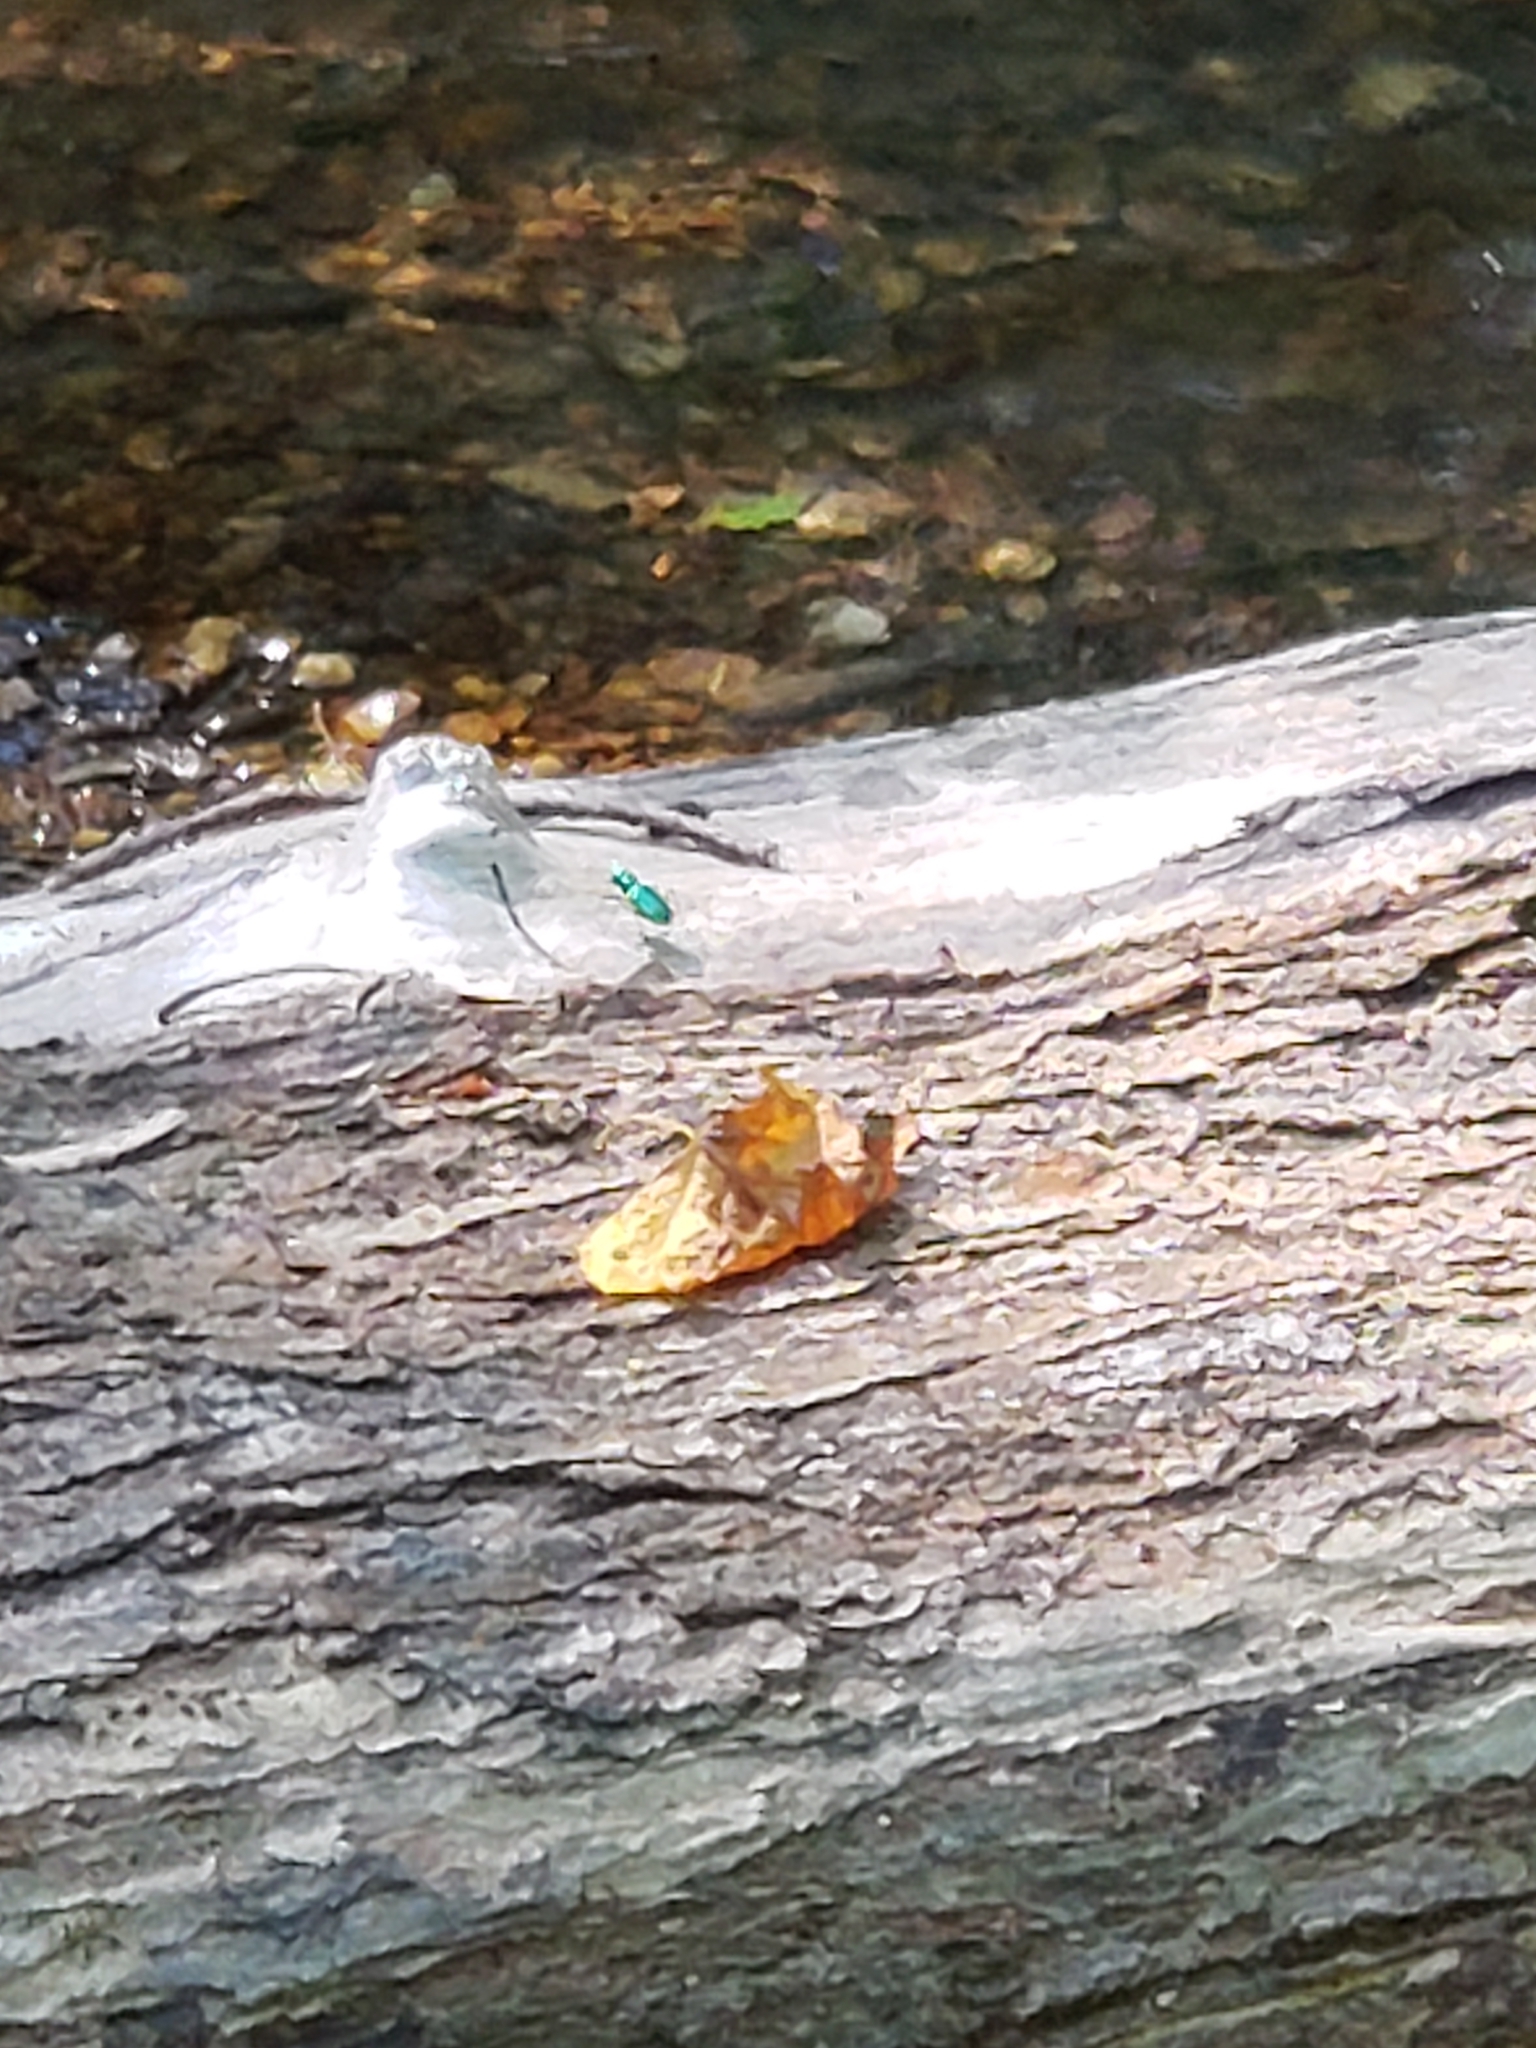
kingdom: Animalia
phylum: Arthropoda
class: Insecta
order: Coleoptera
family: Carabidae
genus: Cicindela
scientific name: Cicindela sexguttata
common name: Six-spotted tiger beetle
